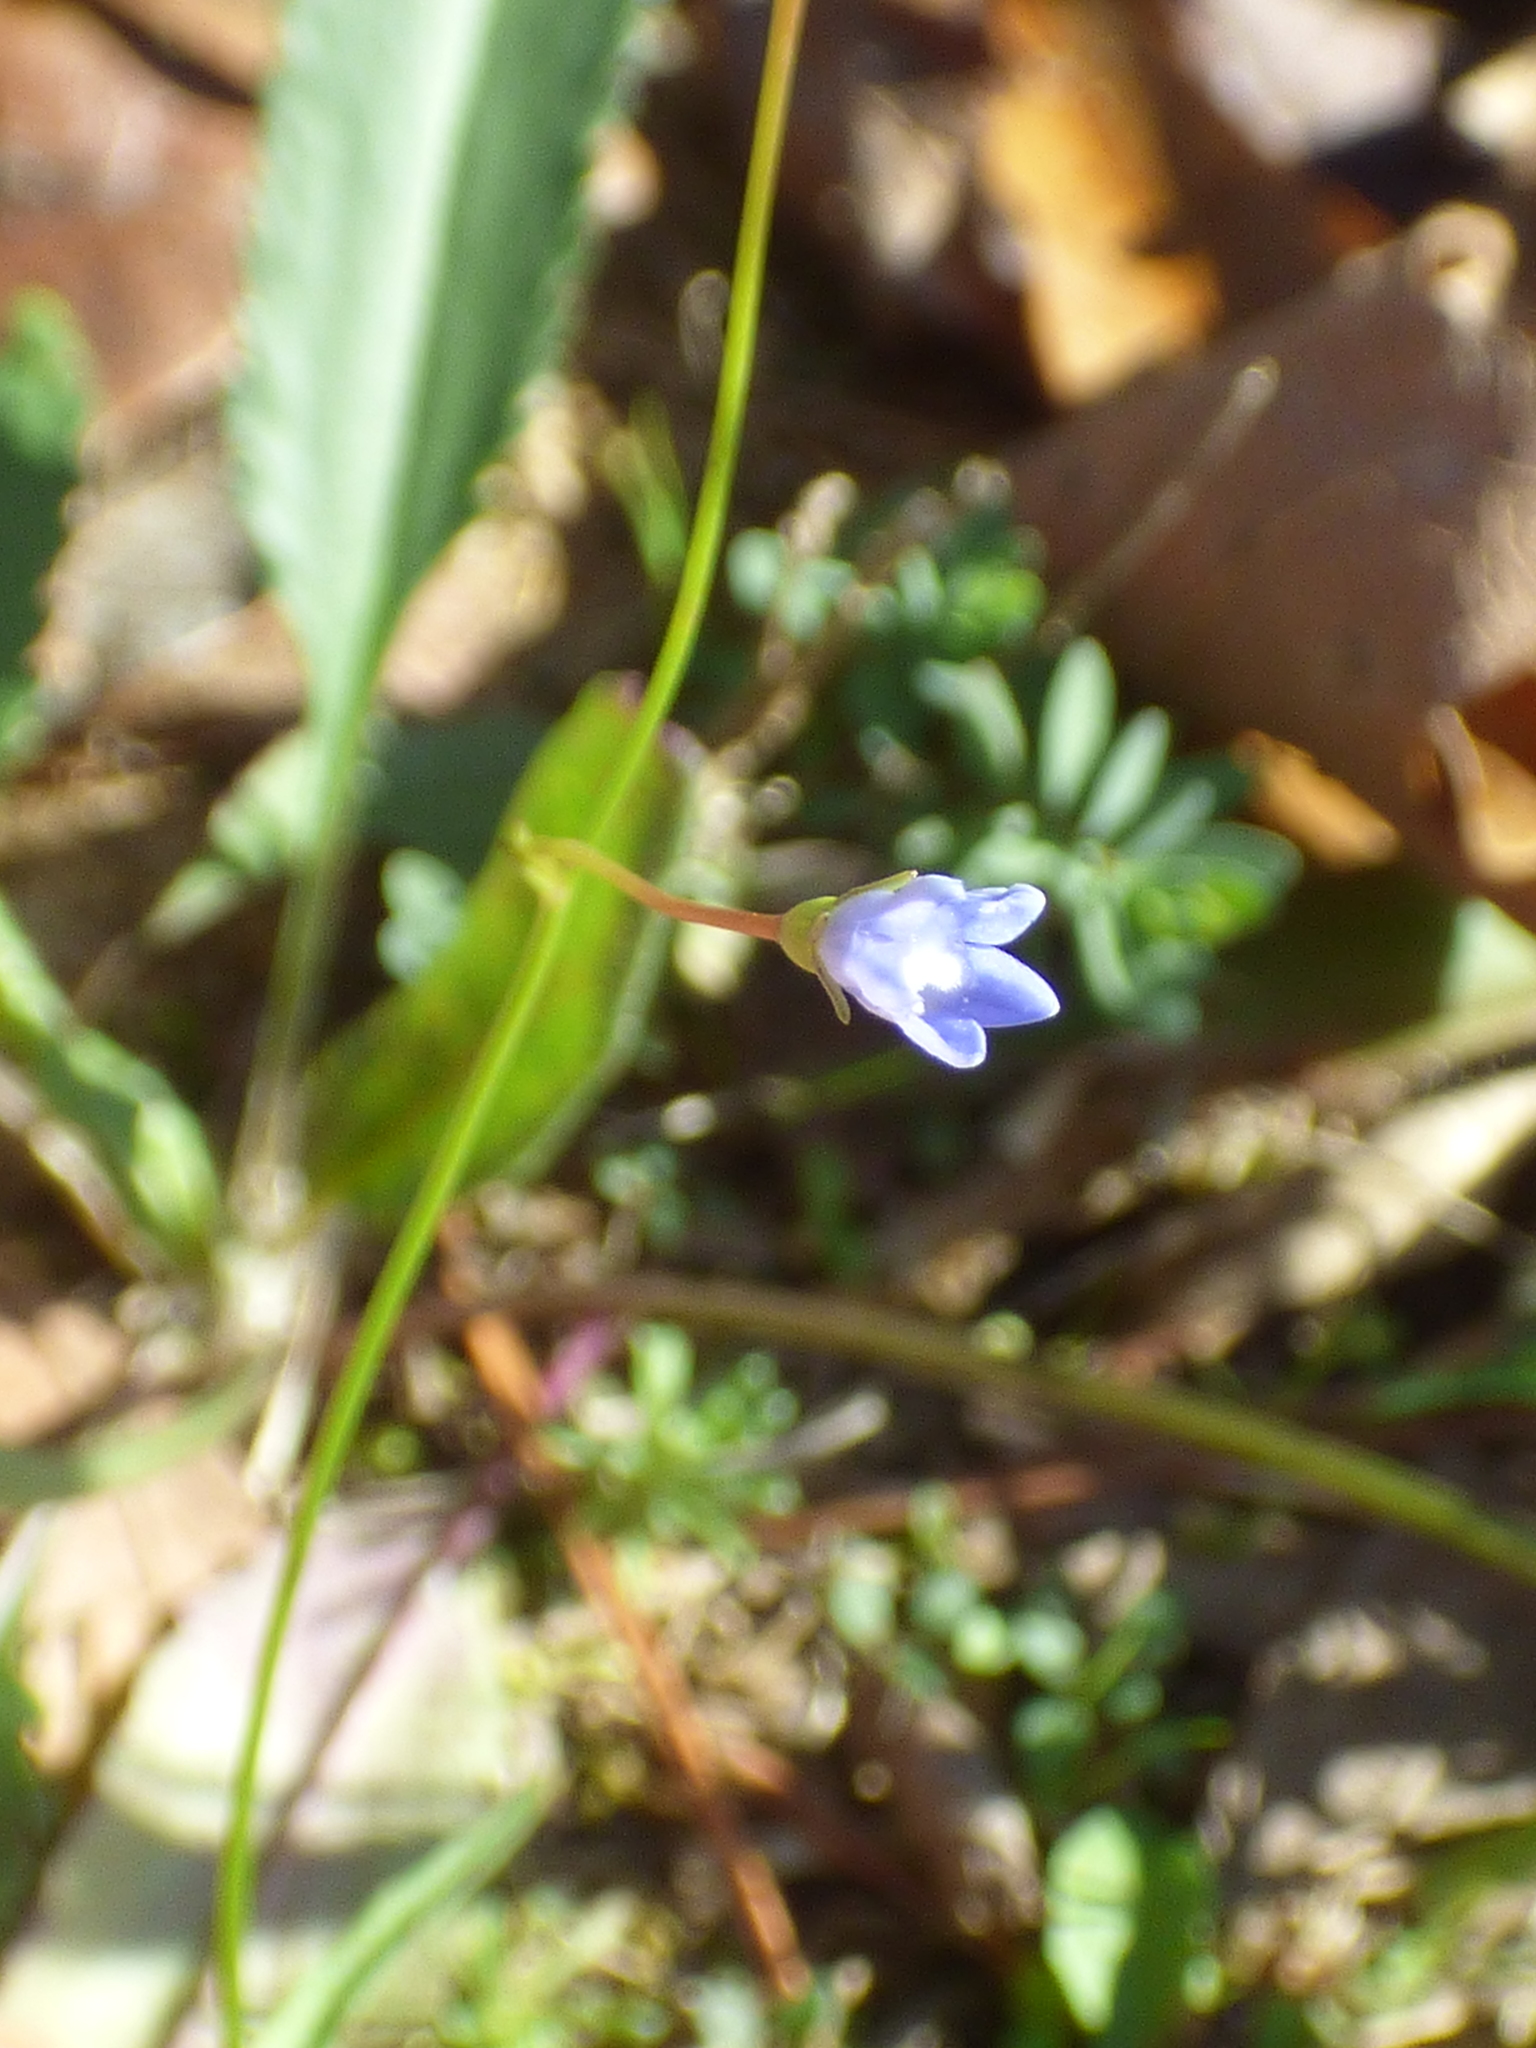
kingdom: Plantae
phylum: Tracheophyta
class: Magnoliopsida
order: Asterales
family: Campanulaceae
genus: Wahlenbergia
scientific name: Wahlenbergia marginata
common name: Southern rockbell
